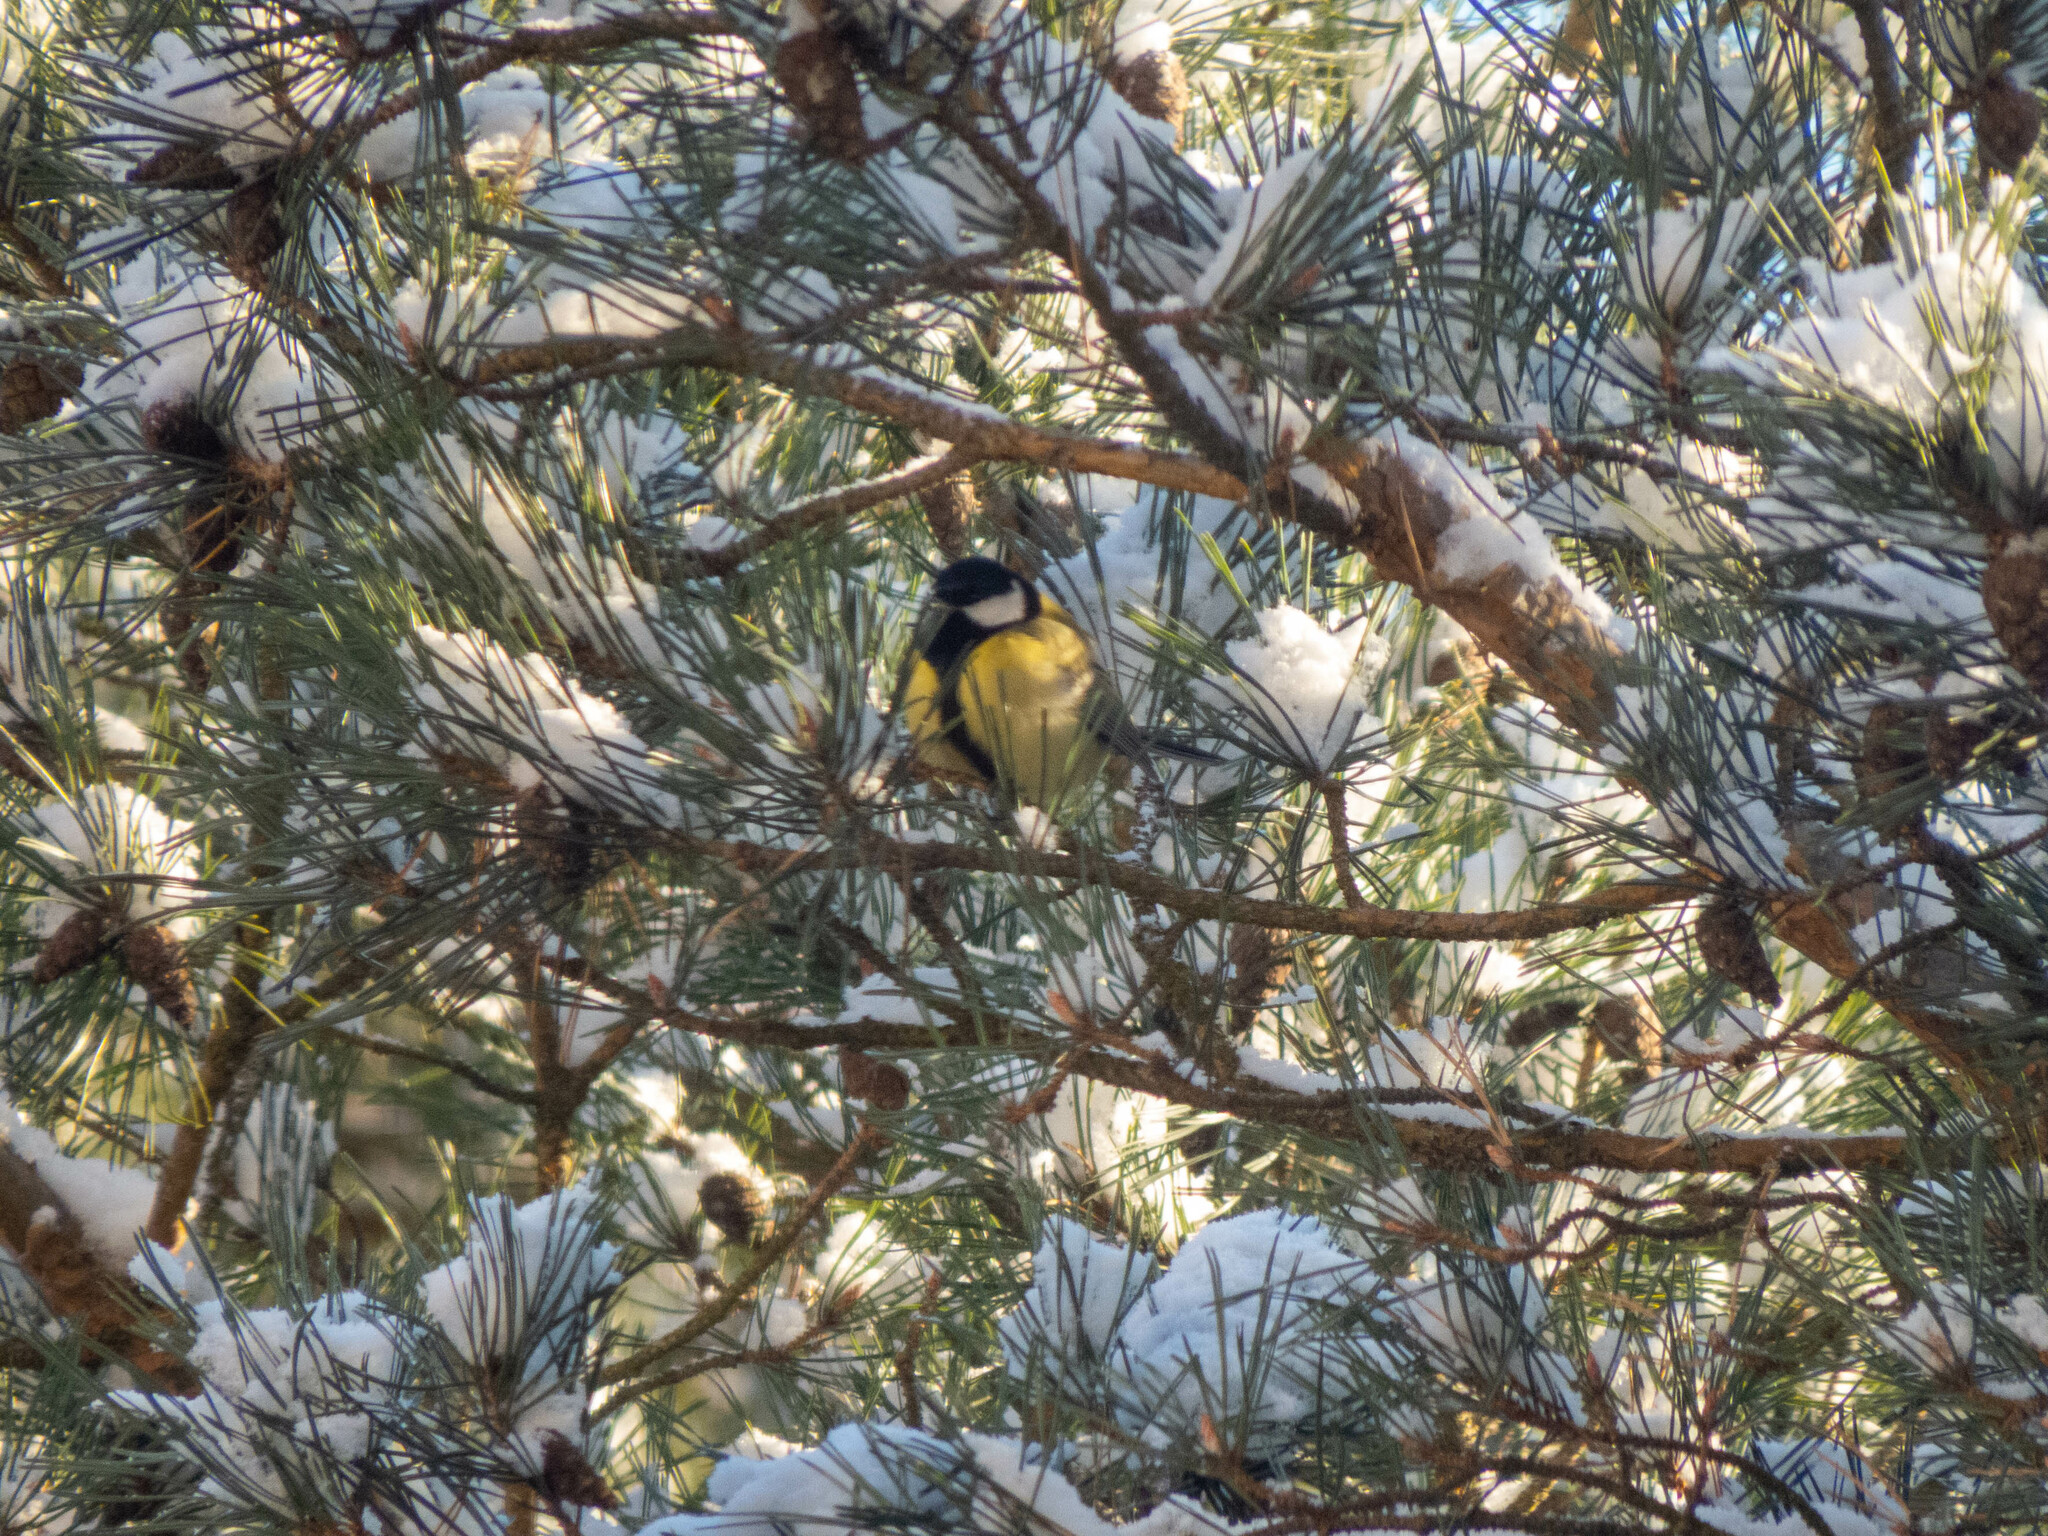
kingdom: Animalia
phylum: Chordata
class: Aves
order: Passeriformes
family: Paridae
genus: Parus
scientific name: Parus major
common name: Great tit
